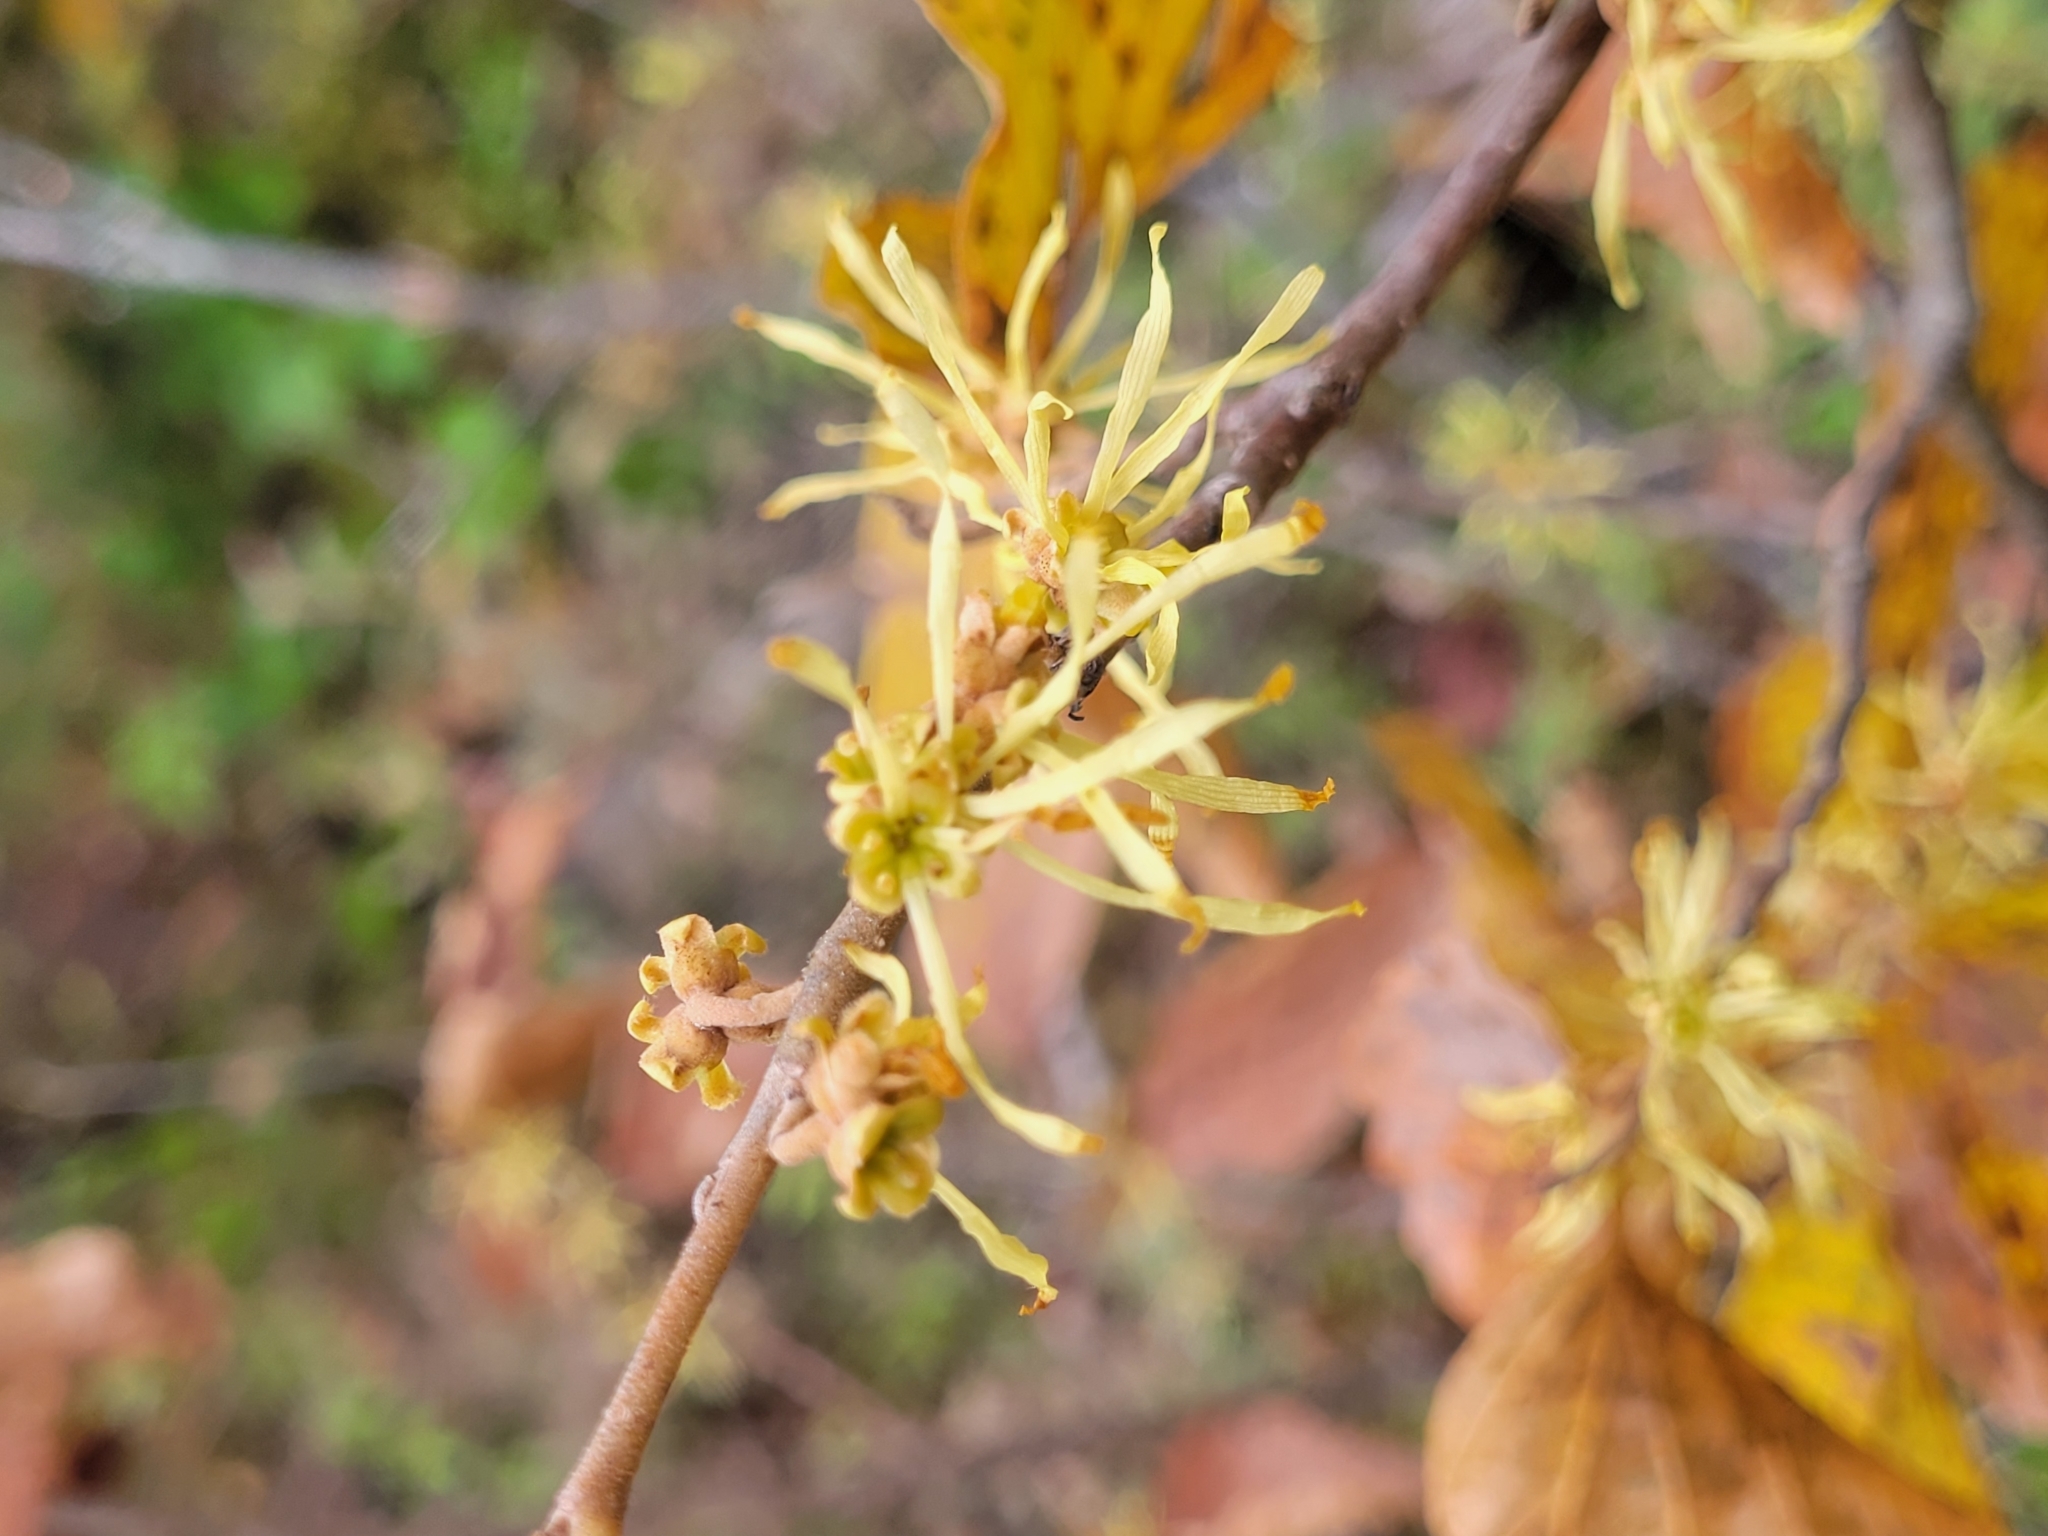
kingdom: Plantae
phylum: Tracheophyta
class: Magnoliopsida
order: Saxifragales
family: Hamamelidaceae
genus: Hamamelis
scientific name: Hamamelis virginiana
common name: Witch-hazel
